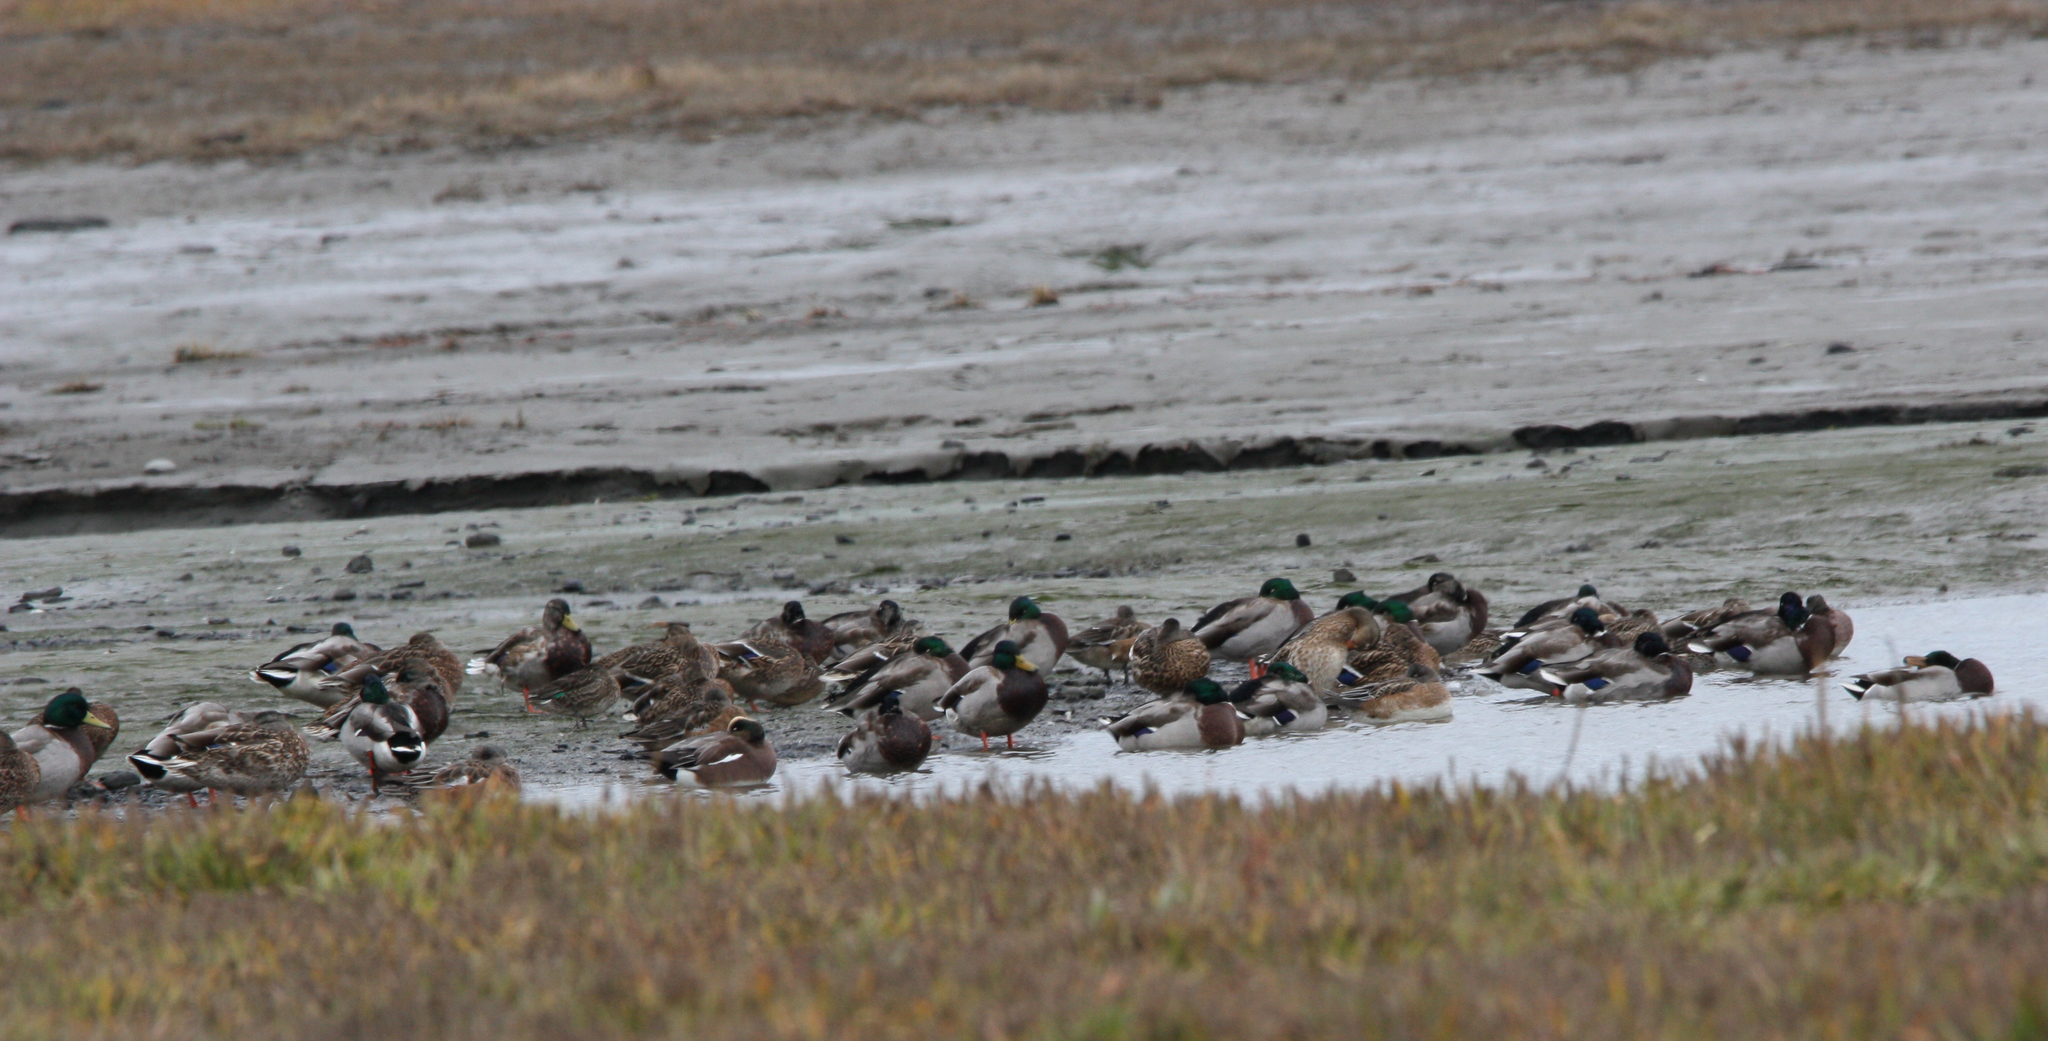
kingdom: Animalia
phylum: Chordata
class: Aves
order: Anseriformes
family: Anatidae
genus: Anas
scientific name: Anas platyrhynchos
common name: Mallard
